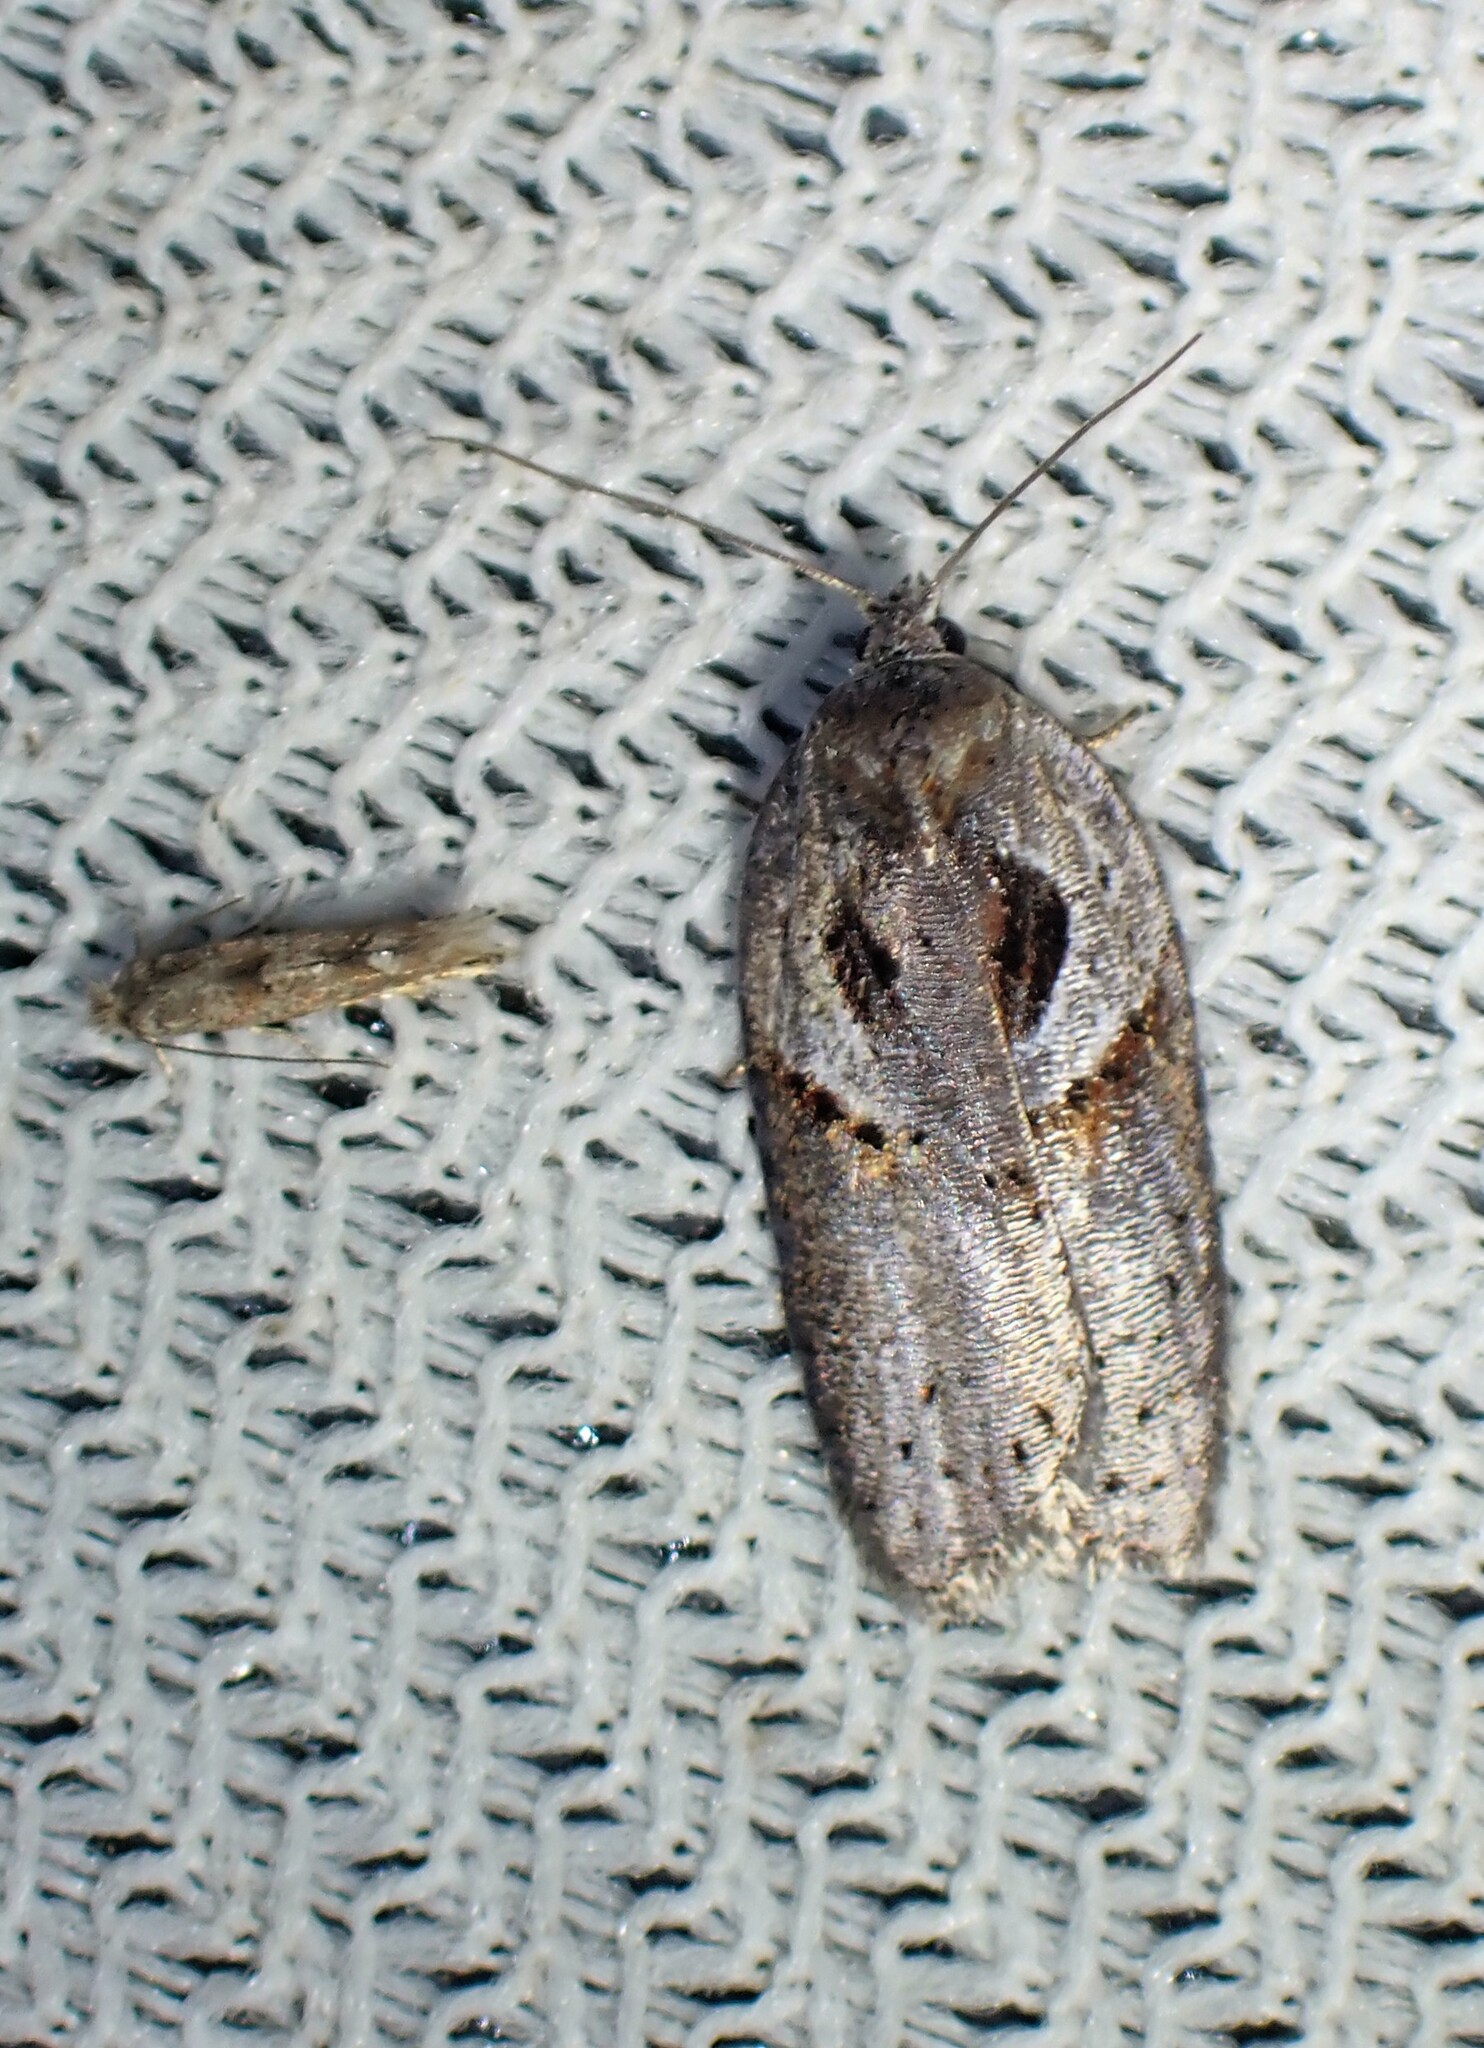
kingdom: Animalia
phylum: Arthropoda
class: Insecta
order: Lepidoptera
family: Tortricidae
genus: Acleris
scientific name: Acleris maculidorsana
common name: Stained-back leafroller moth
